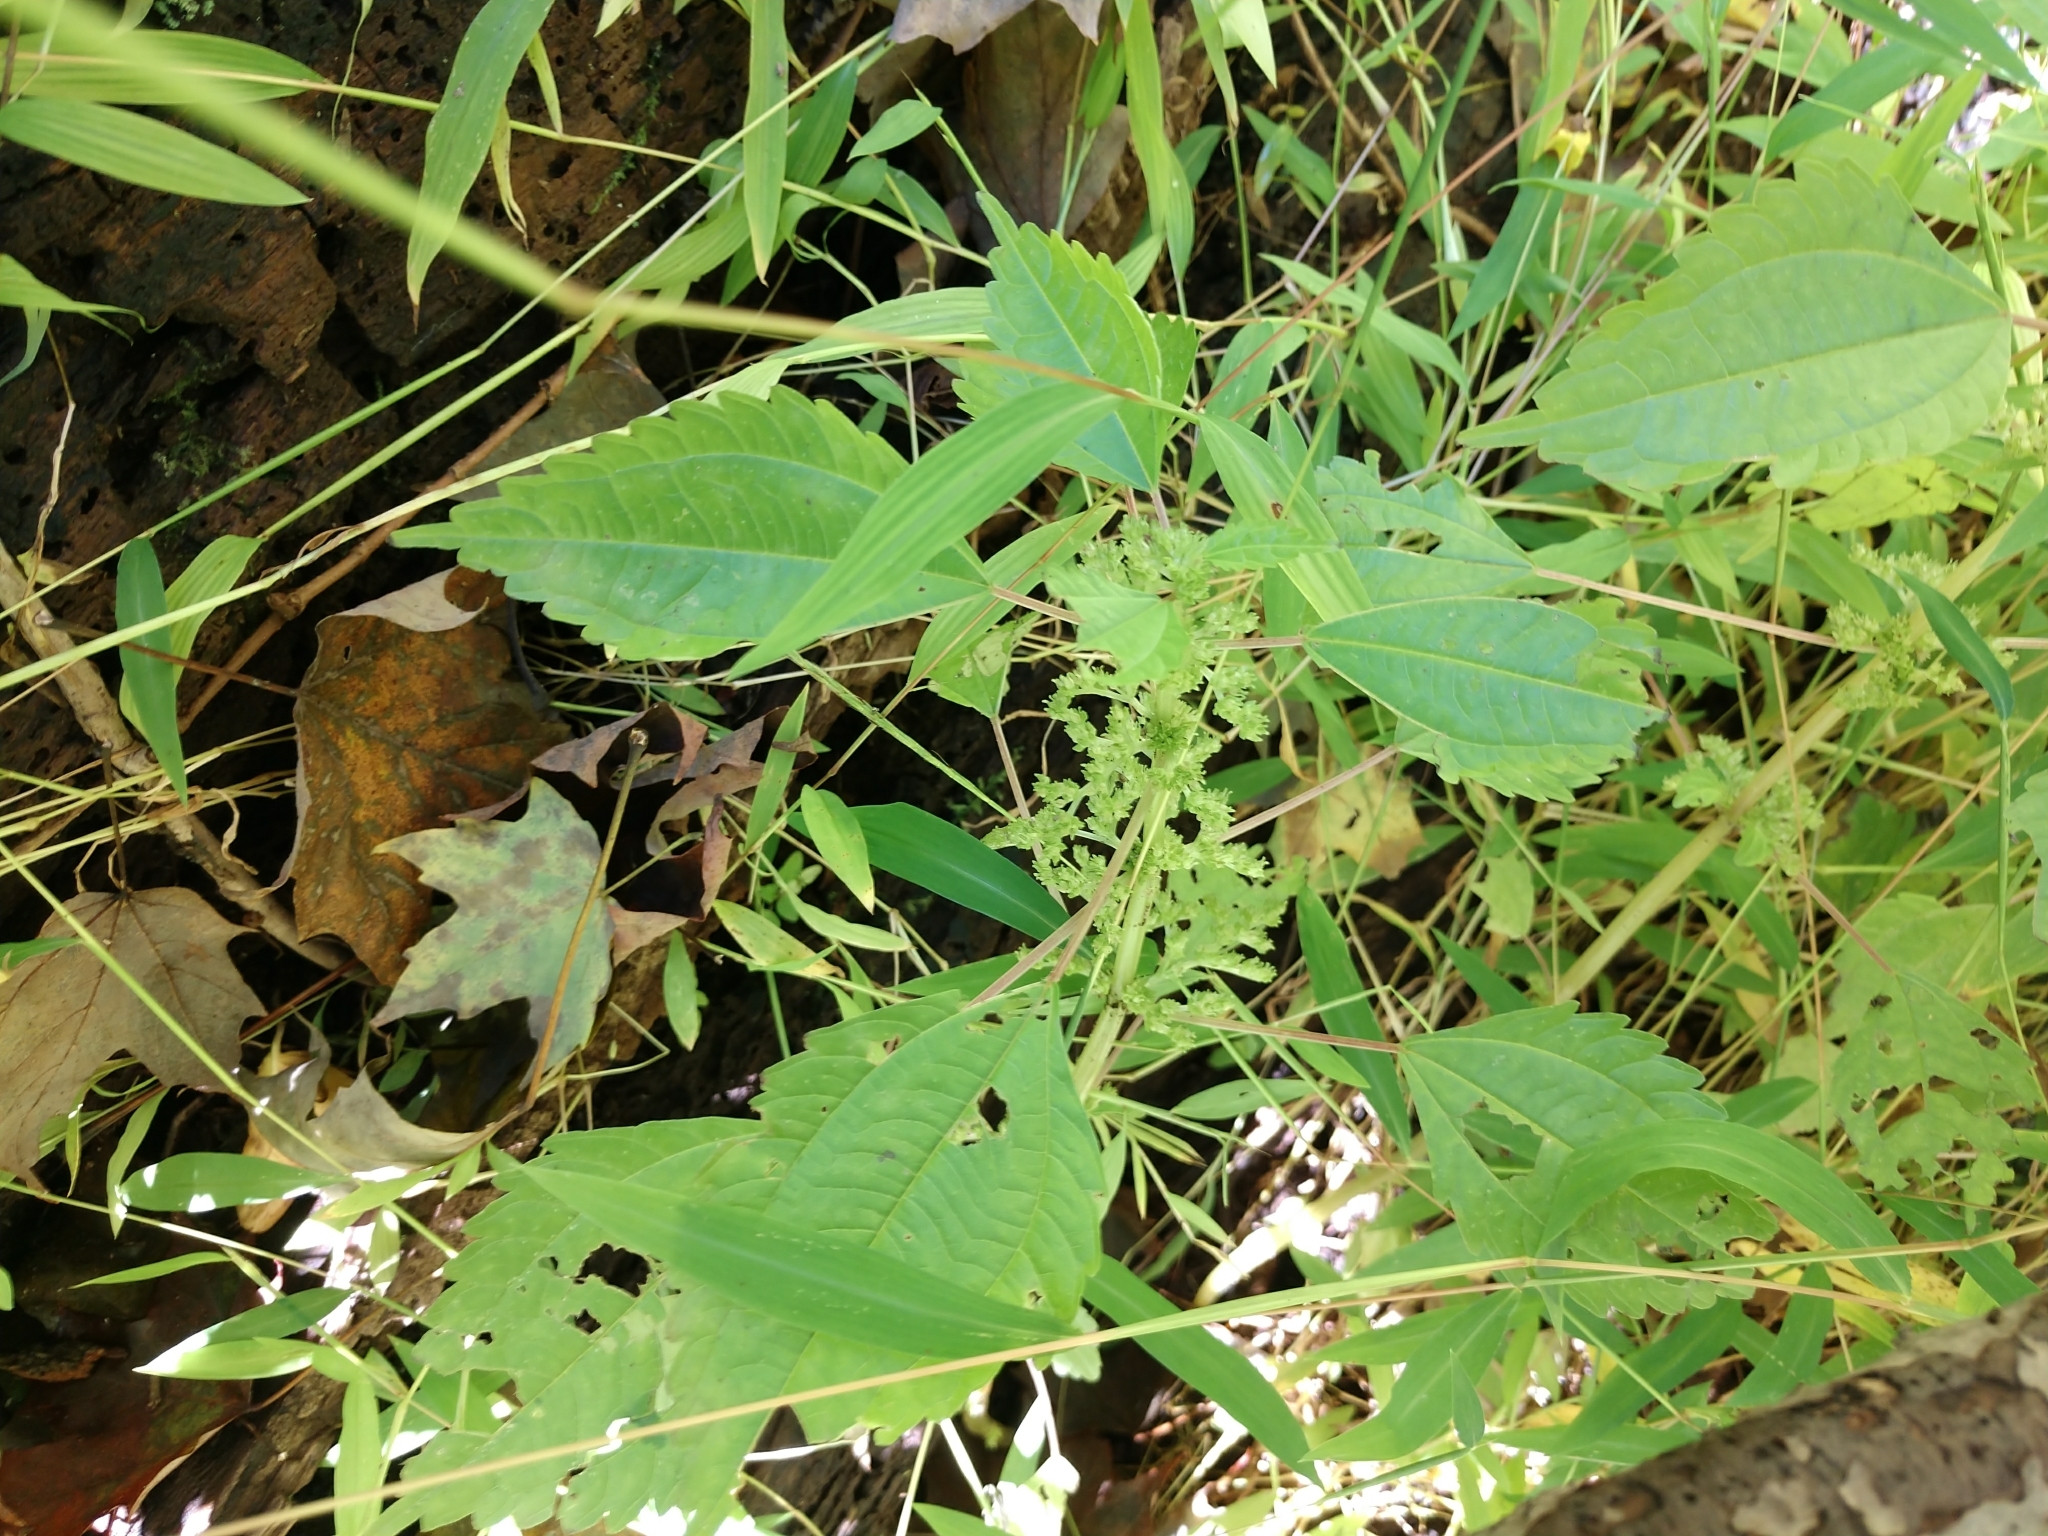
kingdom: Plantae
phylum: Tracheophyta
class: Magnoliopsida
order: Rosales
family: Urticaceae
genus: Pilea
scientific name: Pilea pumila
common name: Clearweed
